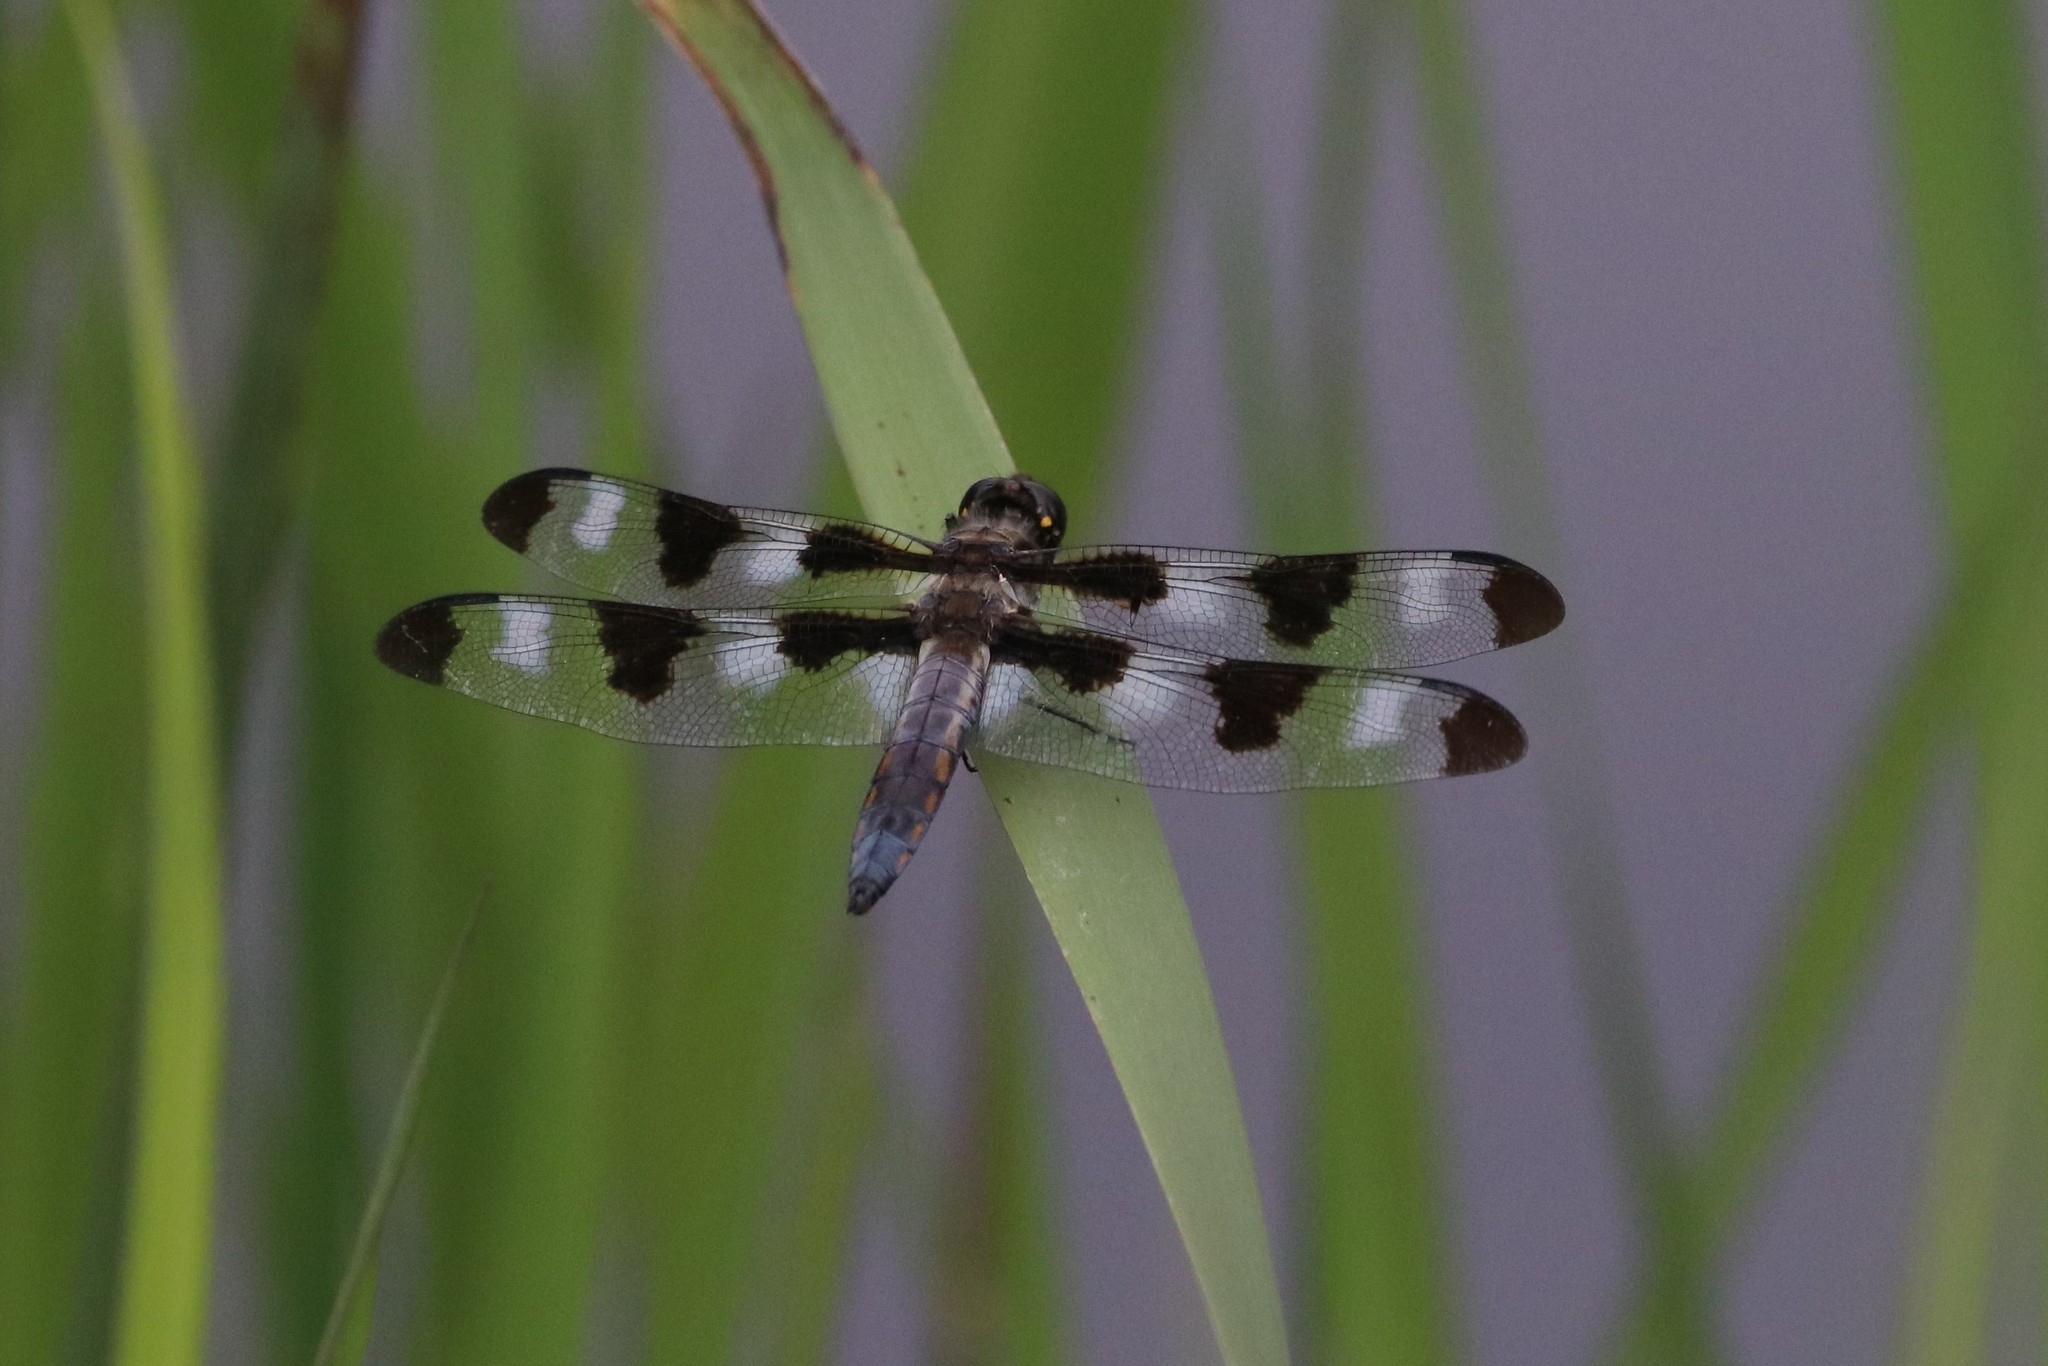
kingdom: Animalia
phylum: Arthropoda
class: Insecta
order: Odonata
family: Libellulidae
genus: Libellula
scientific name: Libellula pulchella
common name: Twelve-spotted skimmer
